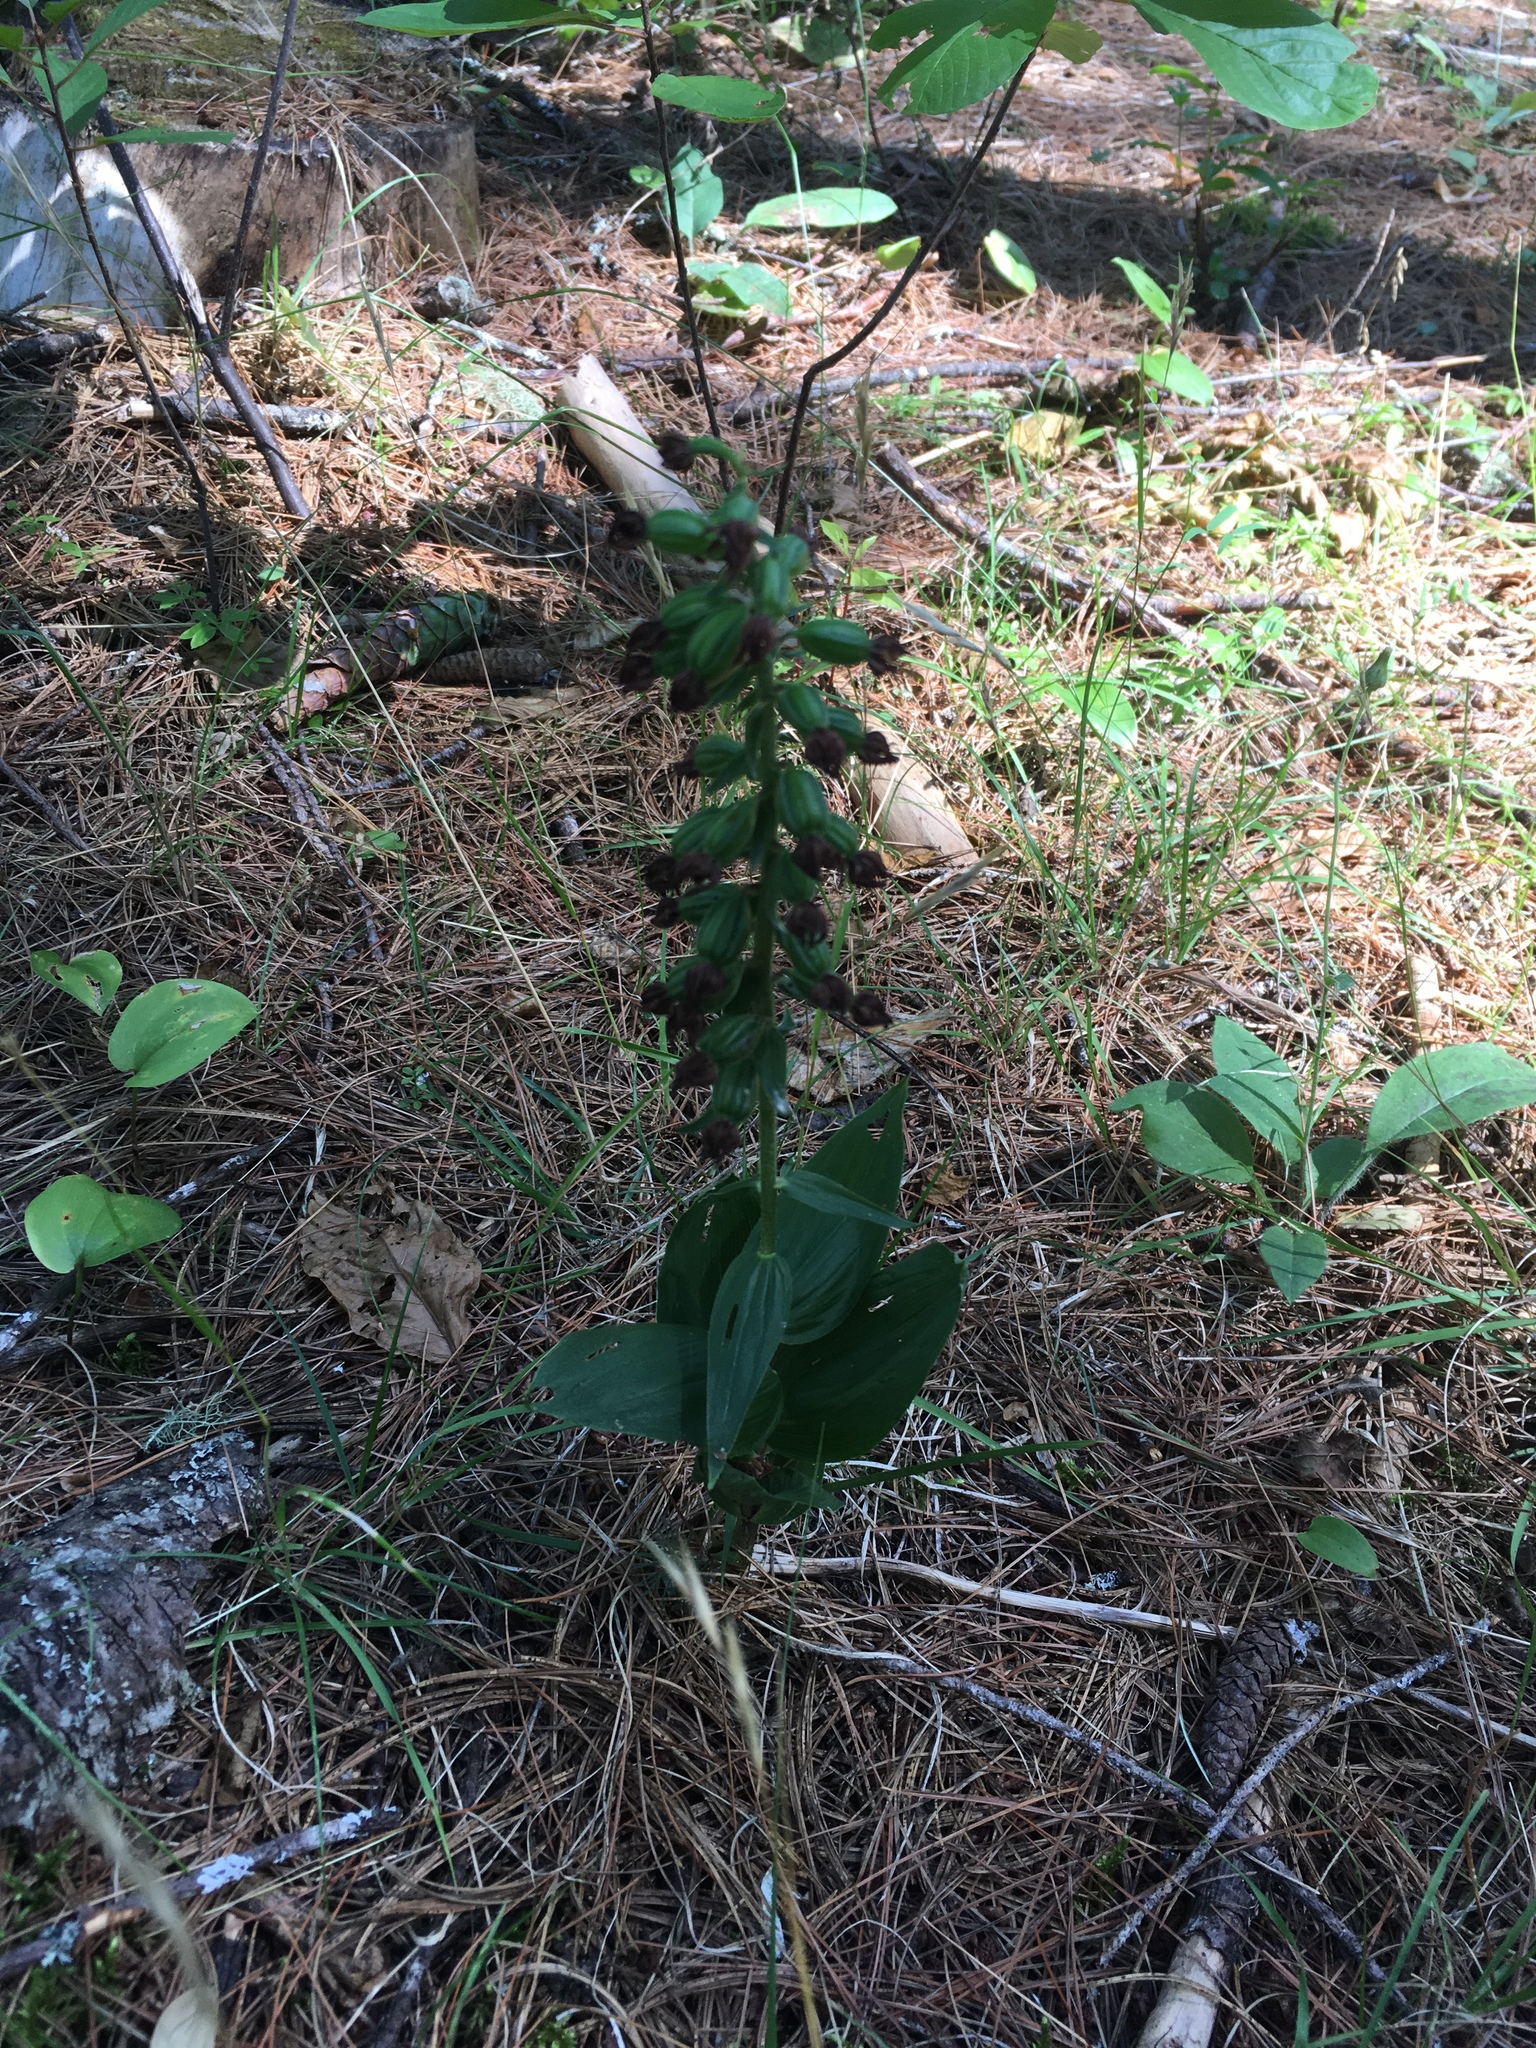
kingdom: Plantae
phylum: Tracheophyta
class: Liliopsida
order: Asparagales
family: Orchidaceae
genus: Epipactis
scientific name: Epipactis helleborine
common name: Broad-leaved helleborine
